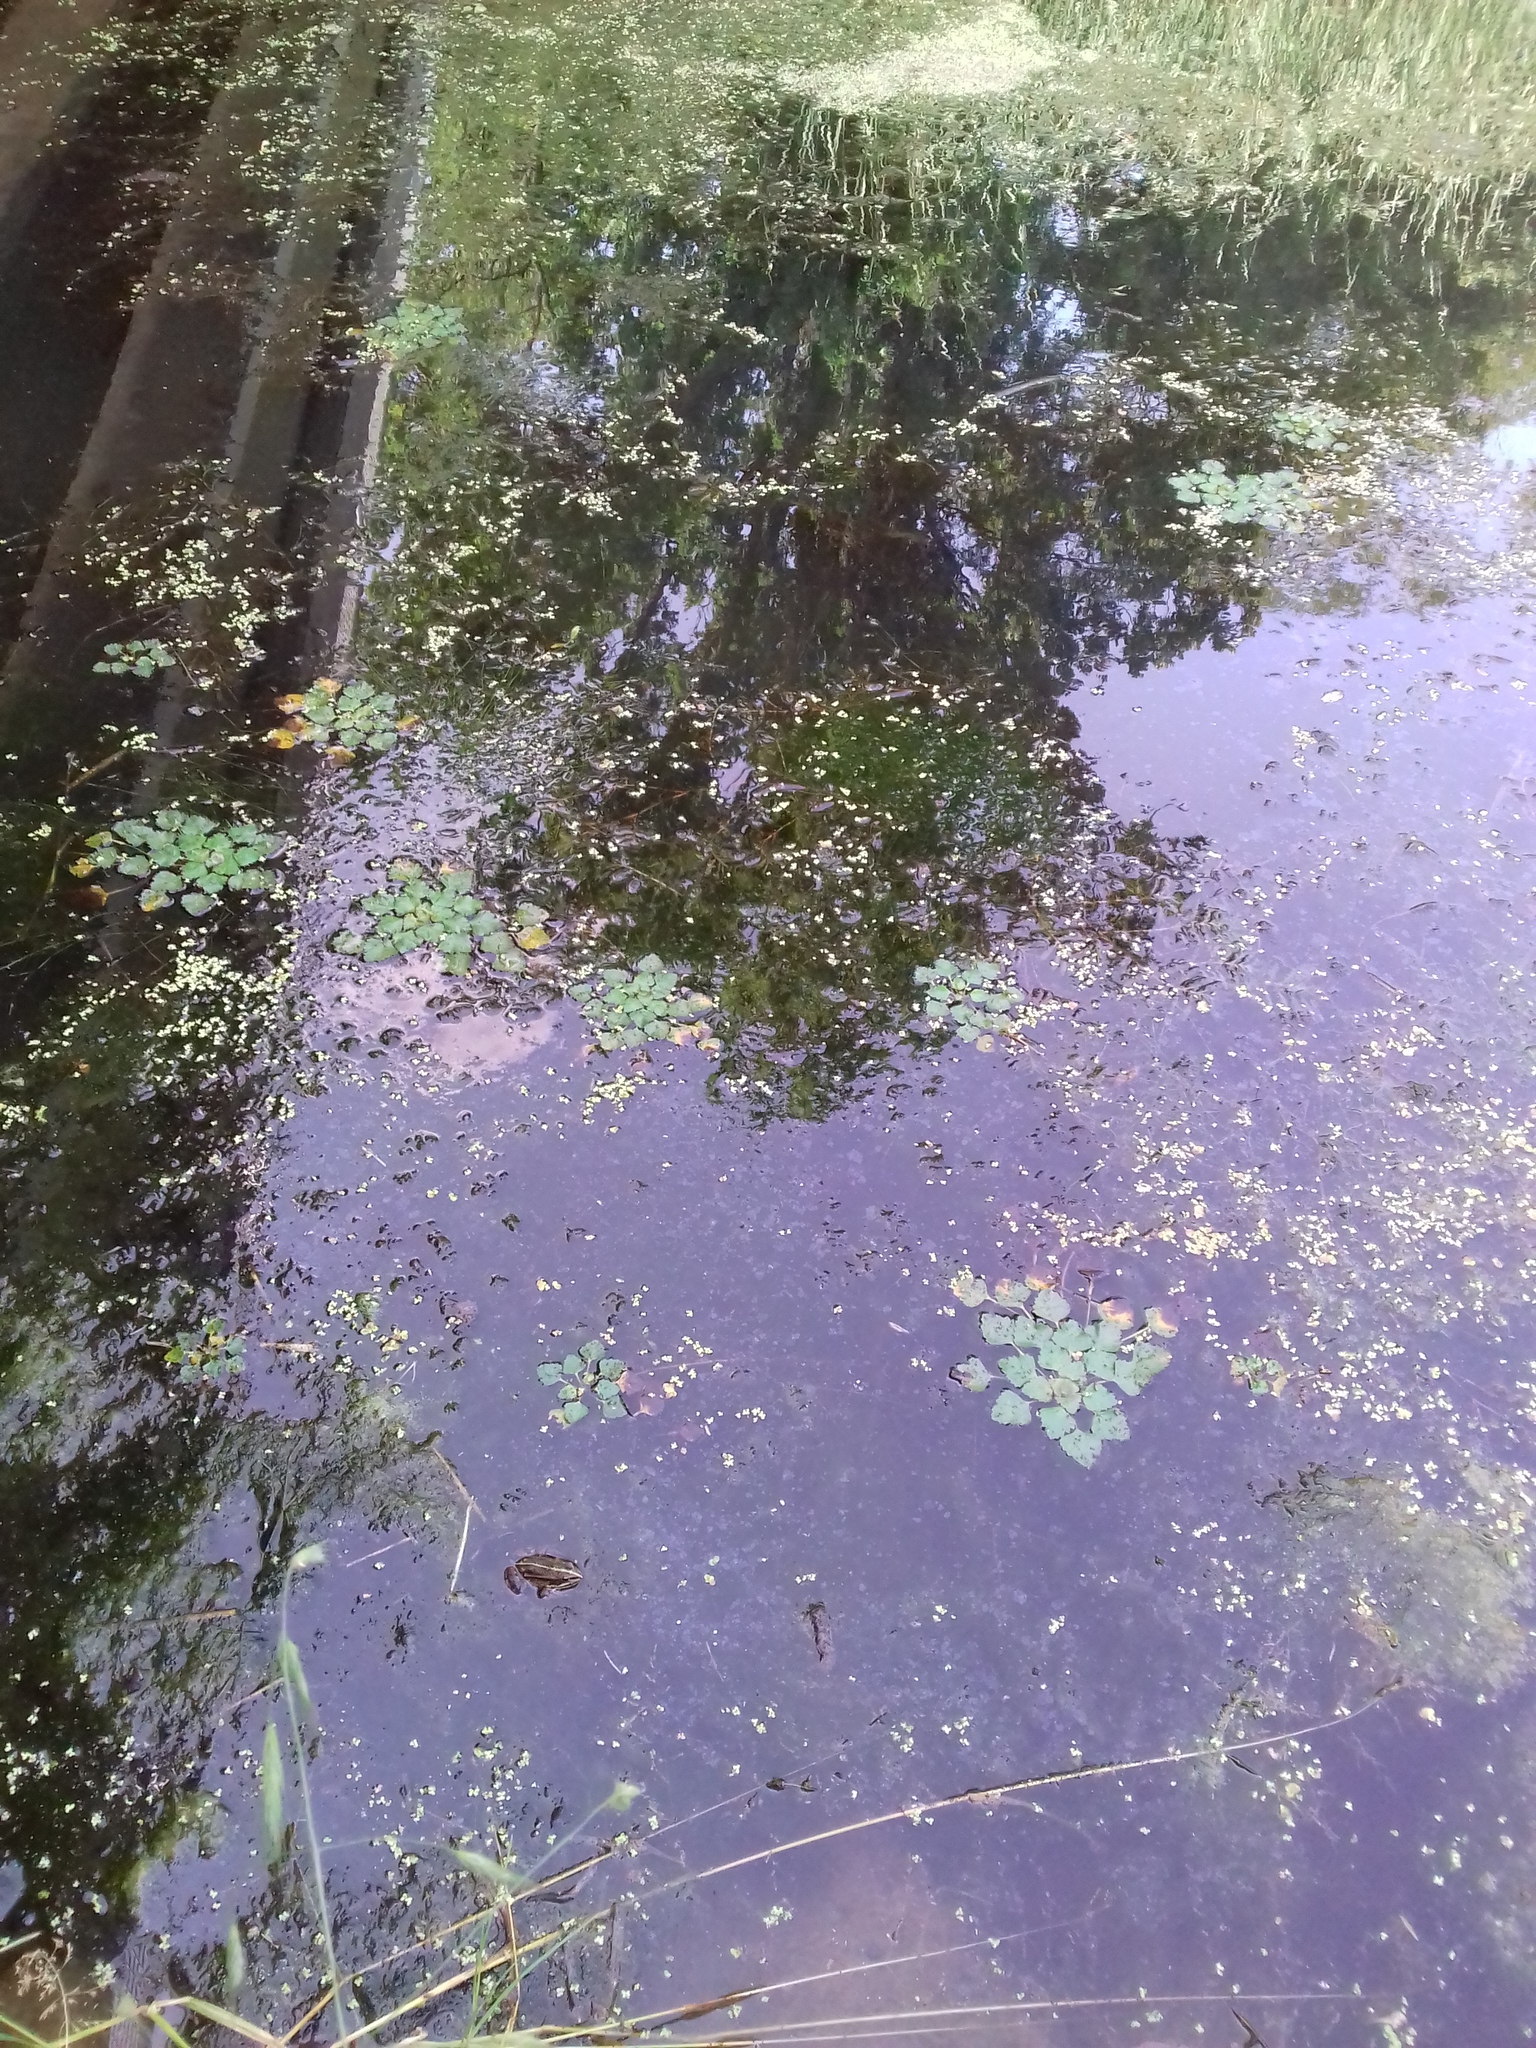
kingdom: Plantae
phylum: Tracheophyta
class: Magnoliopsida
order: Myrtales
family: Lythraceae
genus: Trapa
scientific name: Trapa natans
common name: Water chestnut
